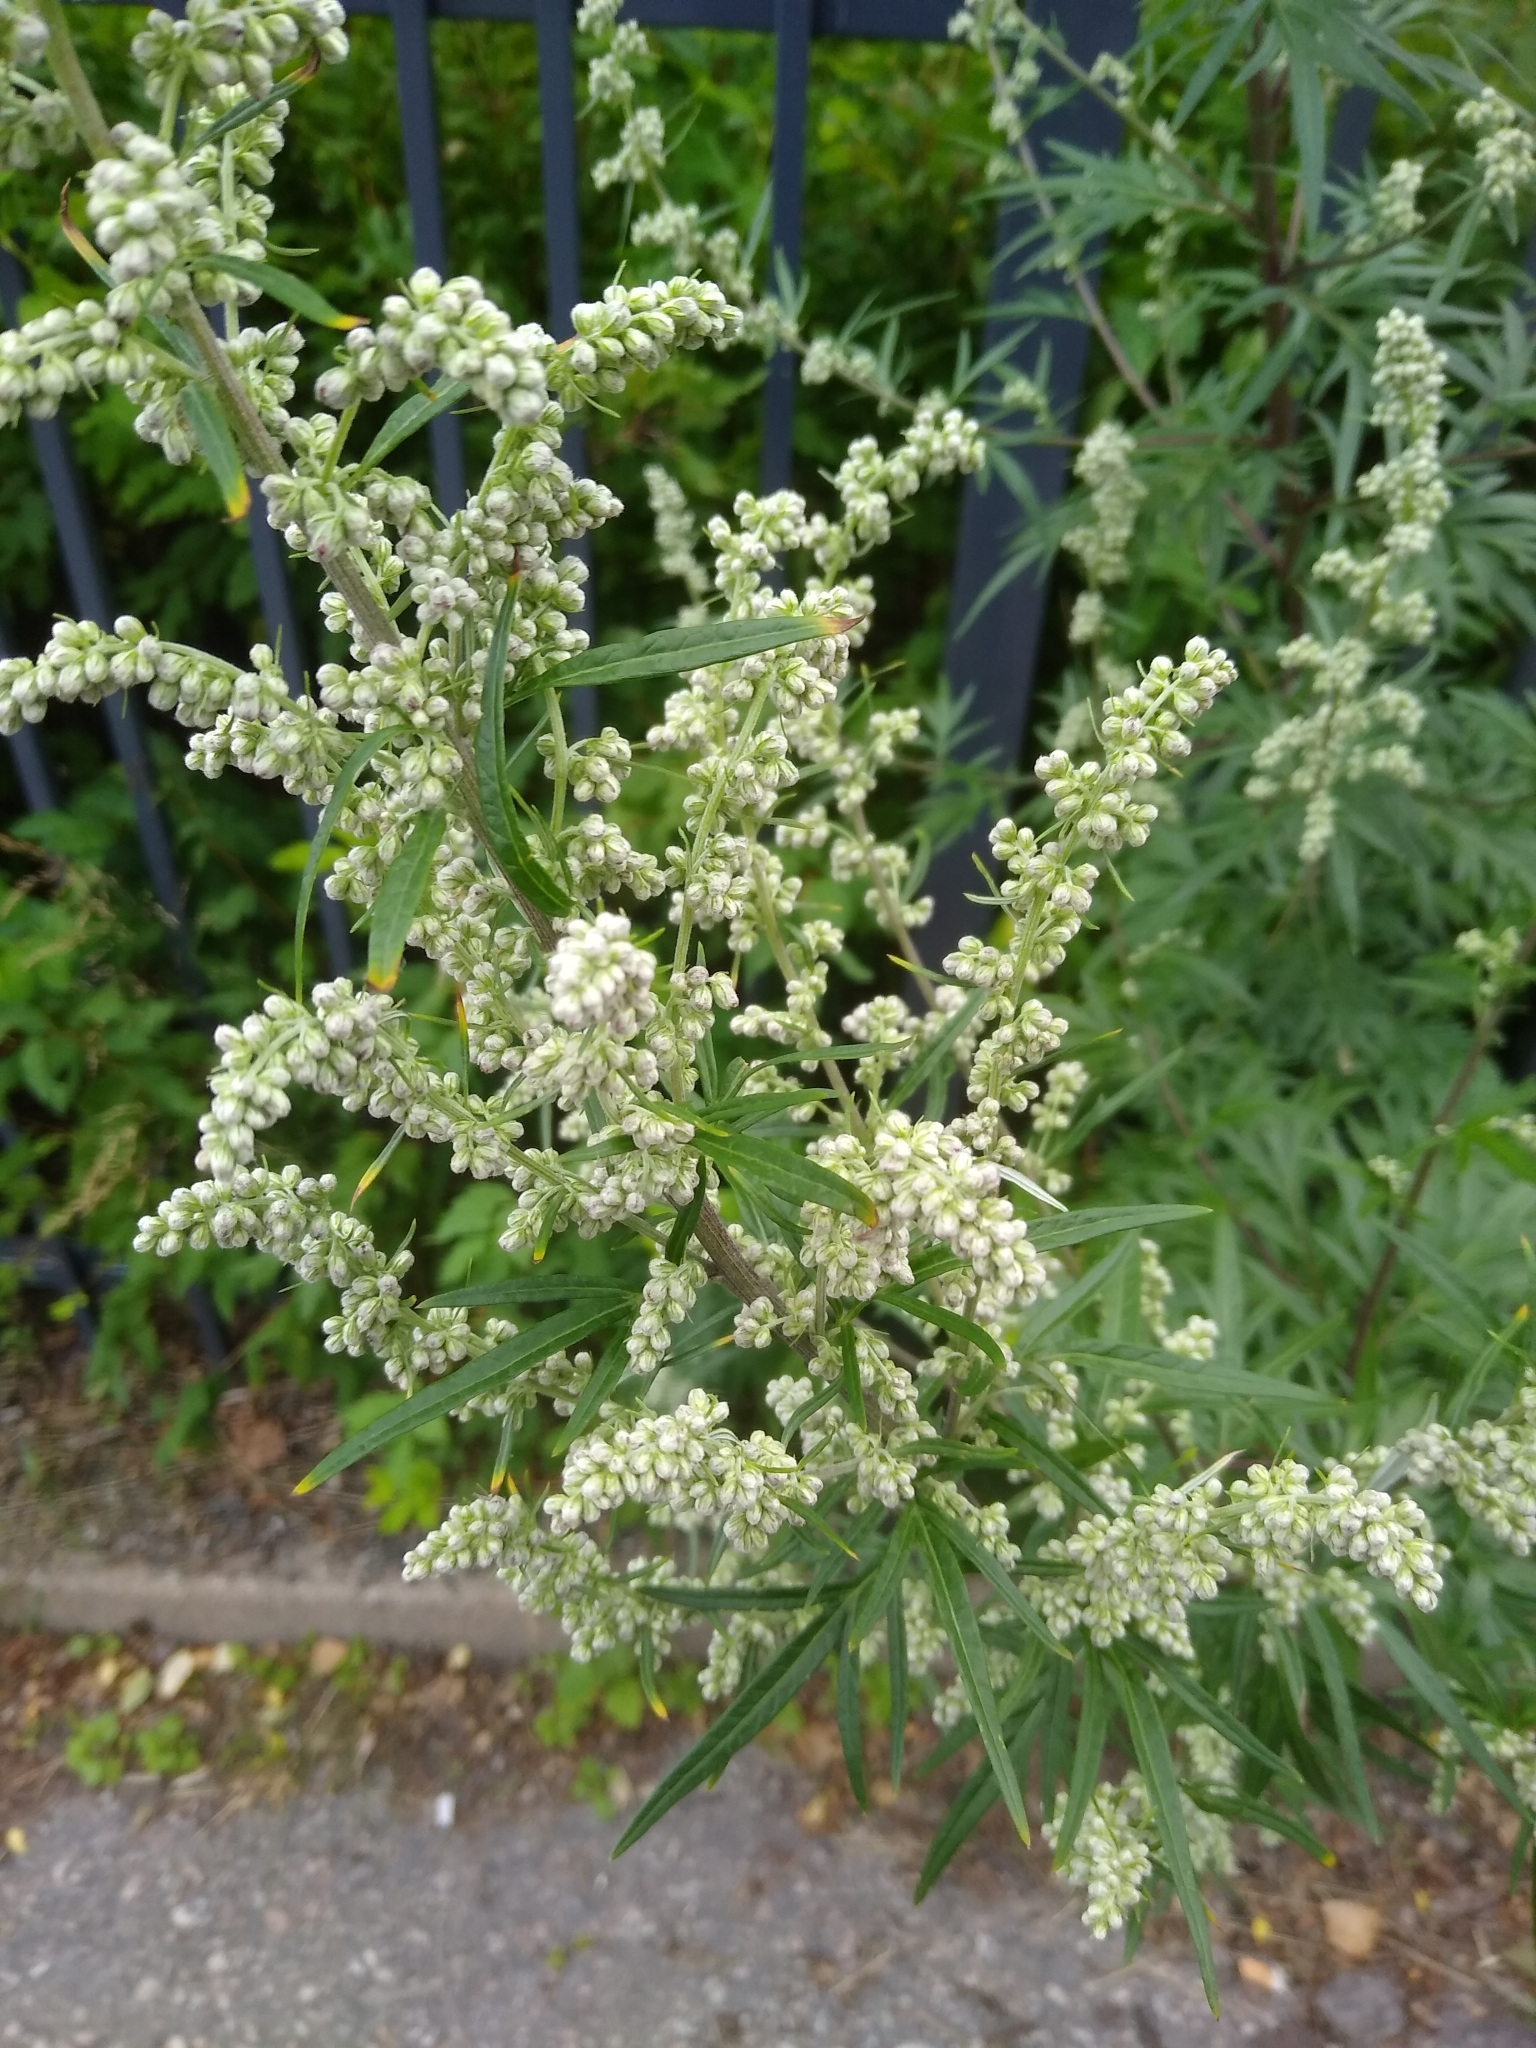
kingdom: Plantae
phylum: Tracheophyta
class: Magnoliopsida
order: Asterales
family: Asteraceae
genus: Artemisia
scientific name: Artemisia vulgaris
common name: Mugwort
